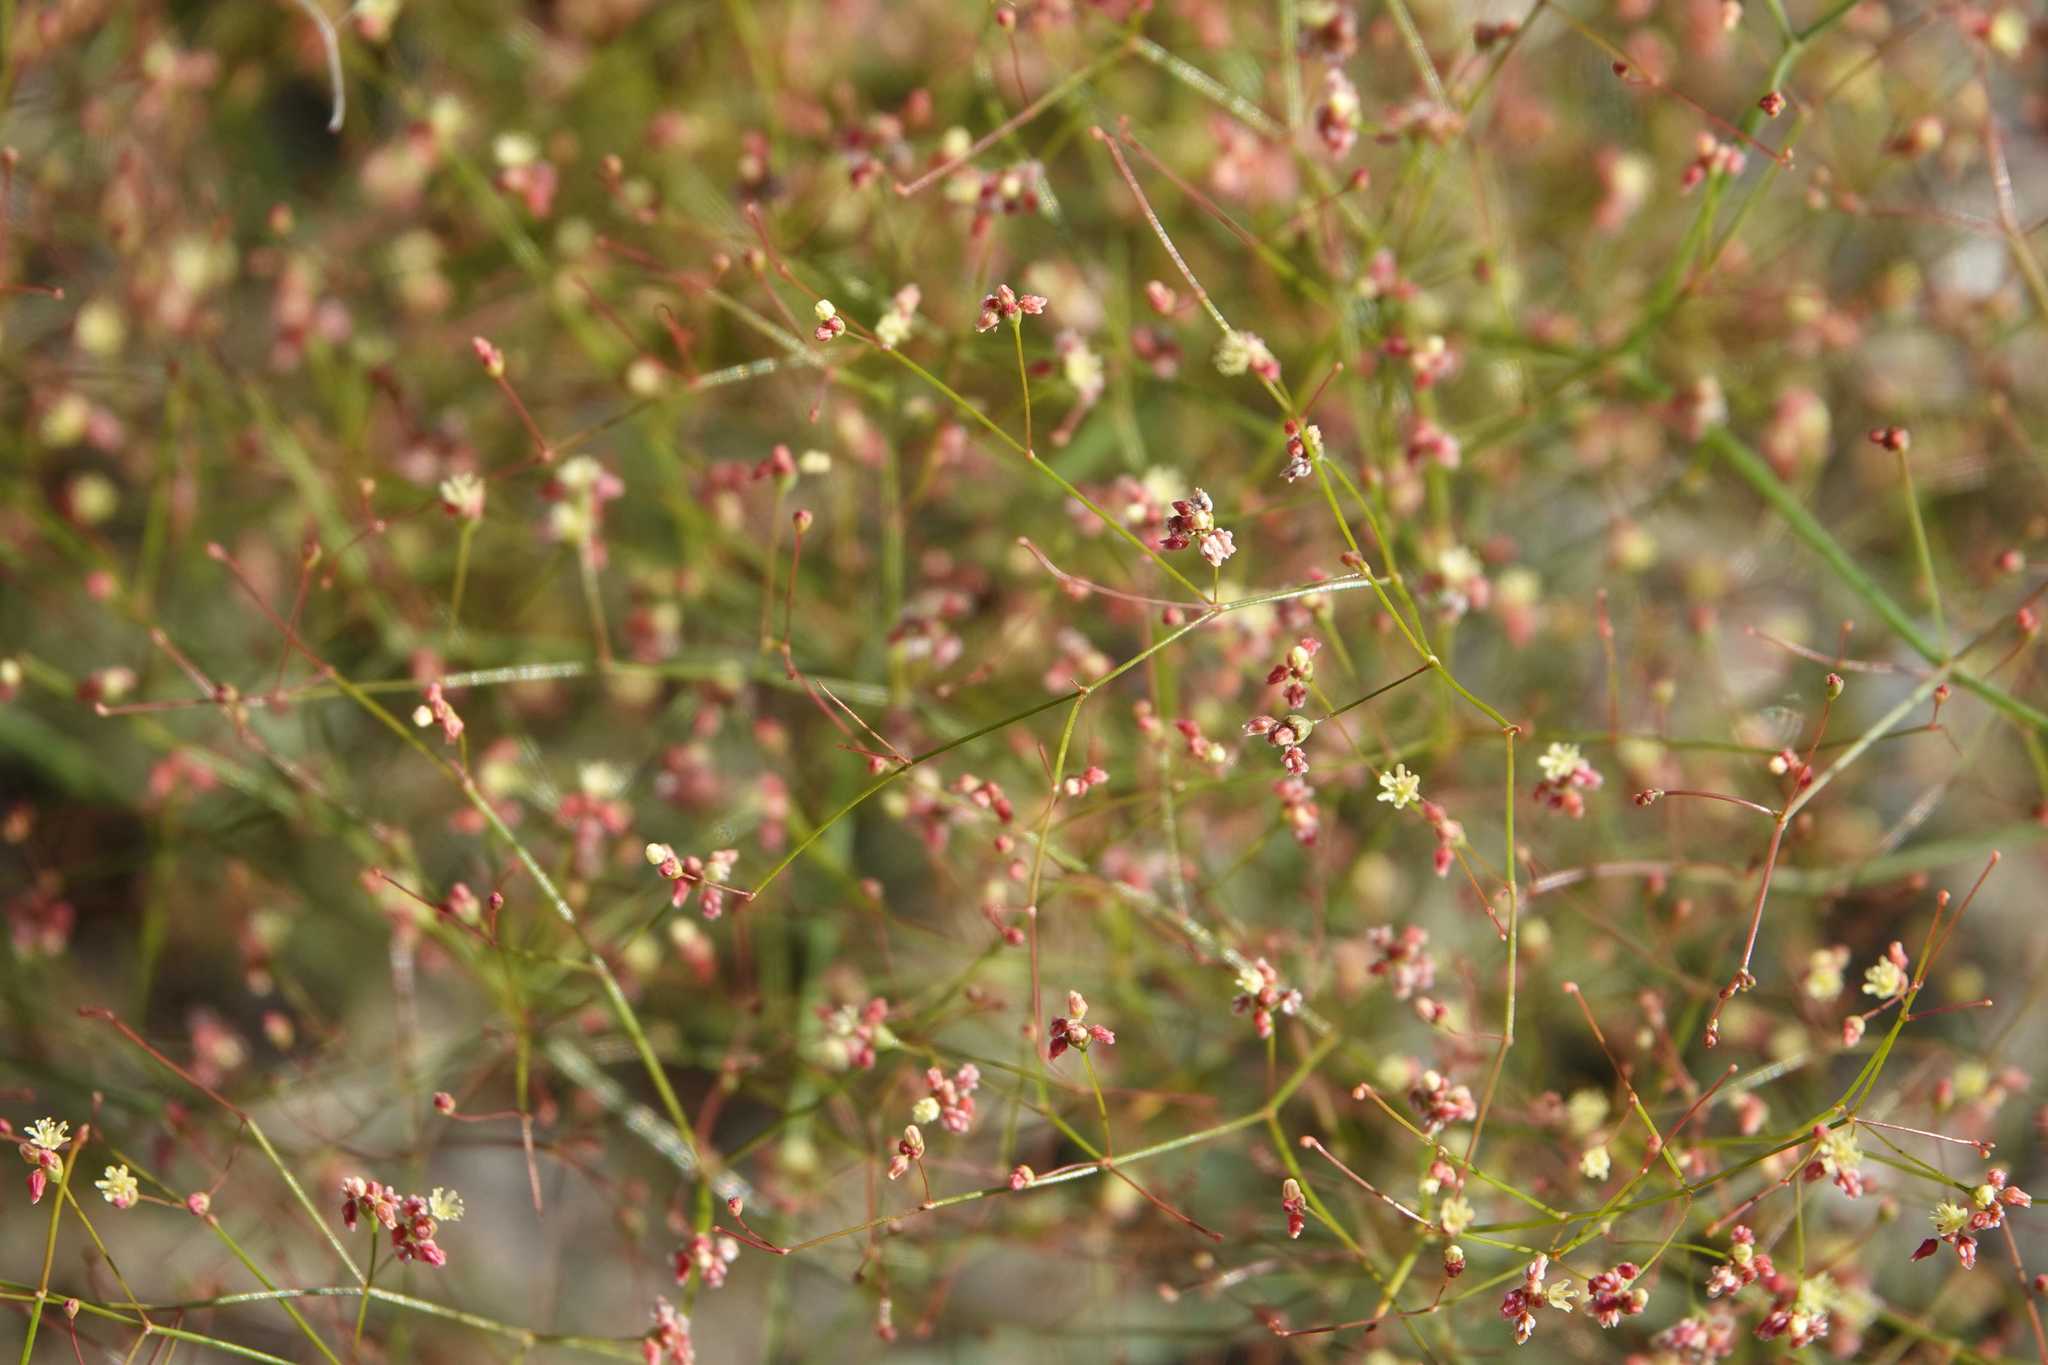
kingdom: Plantae
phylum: Tracheophyta
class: Magnoliopsida
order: Caryophyllales
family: Polygonaceae
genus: Eriogonum
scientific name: Eriogonum thomasii
